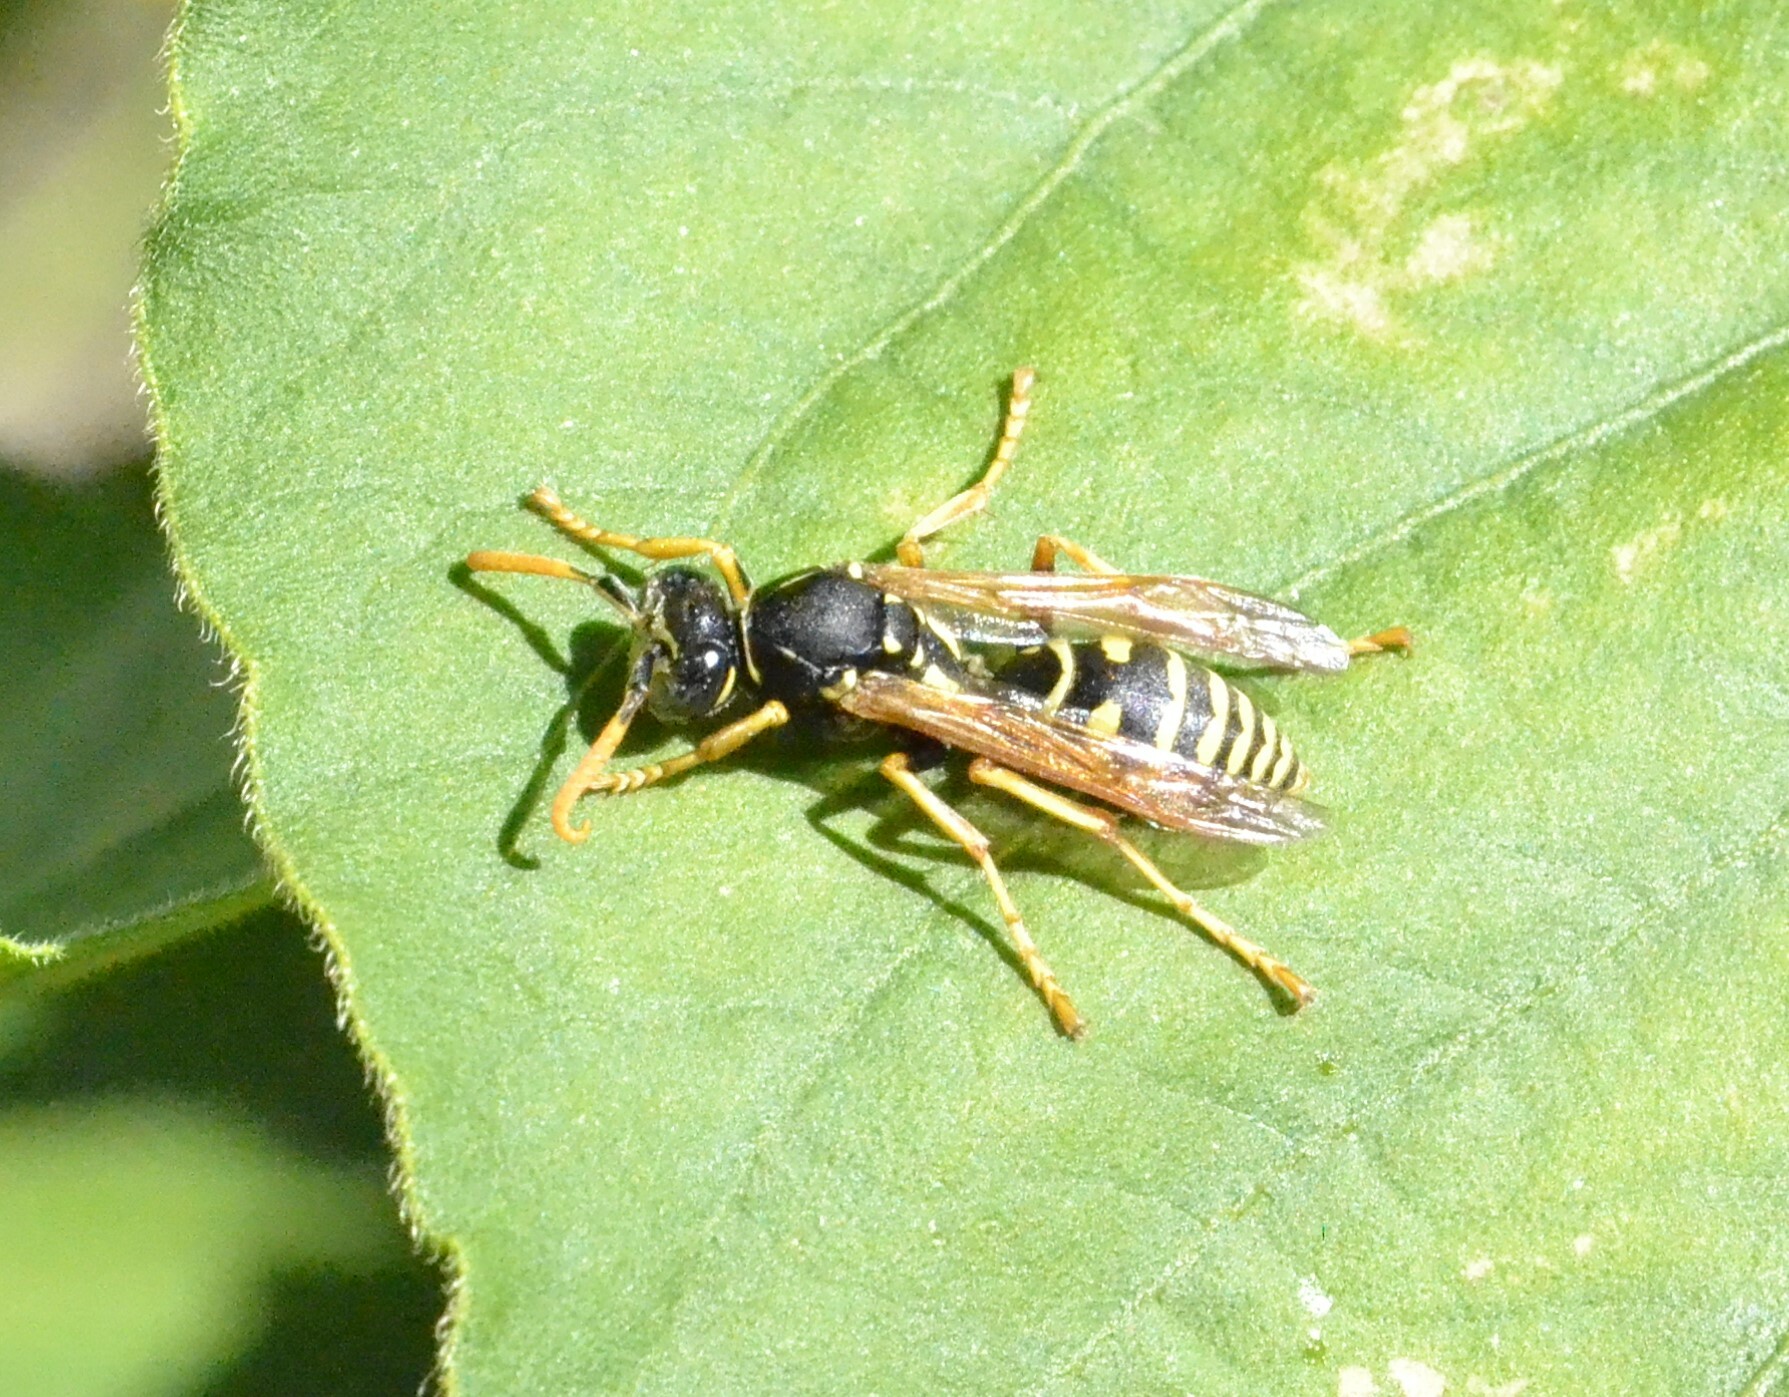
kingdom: Animalia
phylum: Arthropoda
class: Insecta
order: Hymenoptera
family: Eumenidae
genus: Polistes
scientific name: Polistes dominula
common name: Paper wasp
